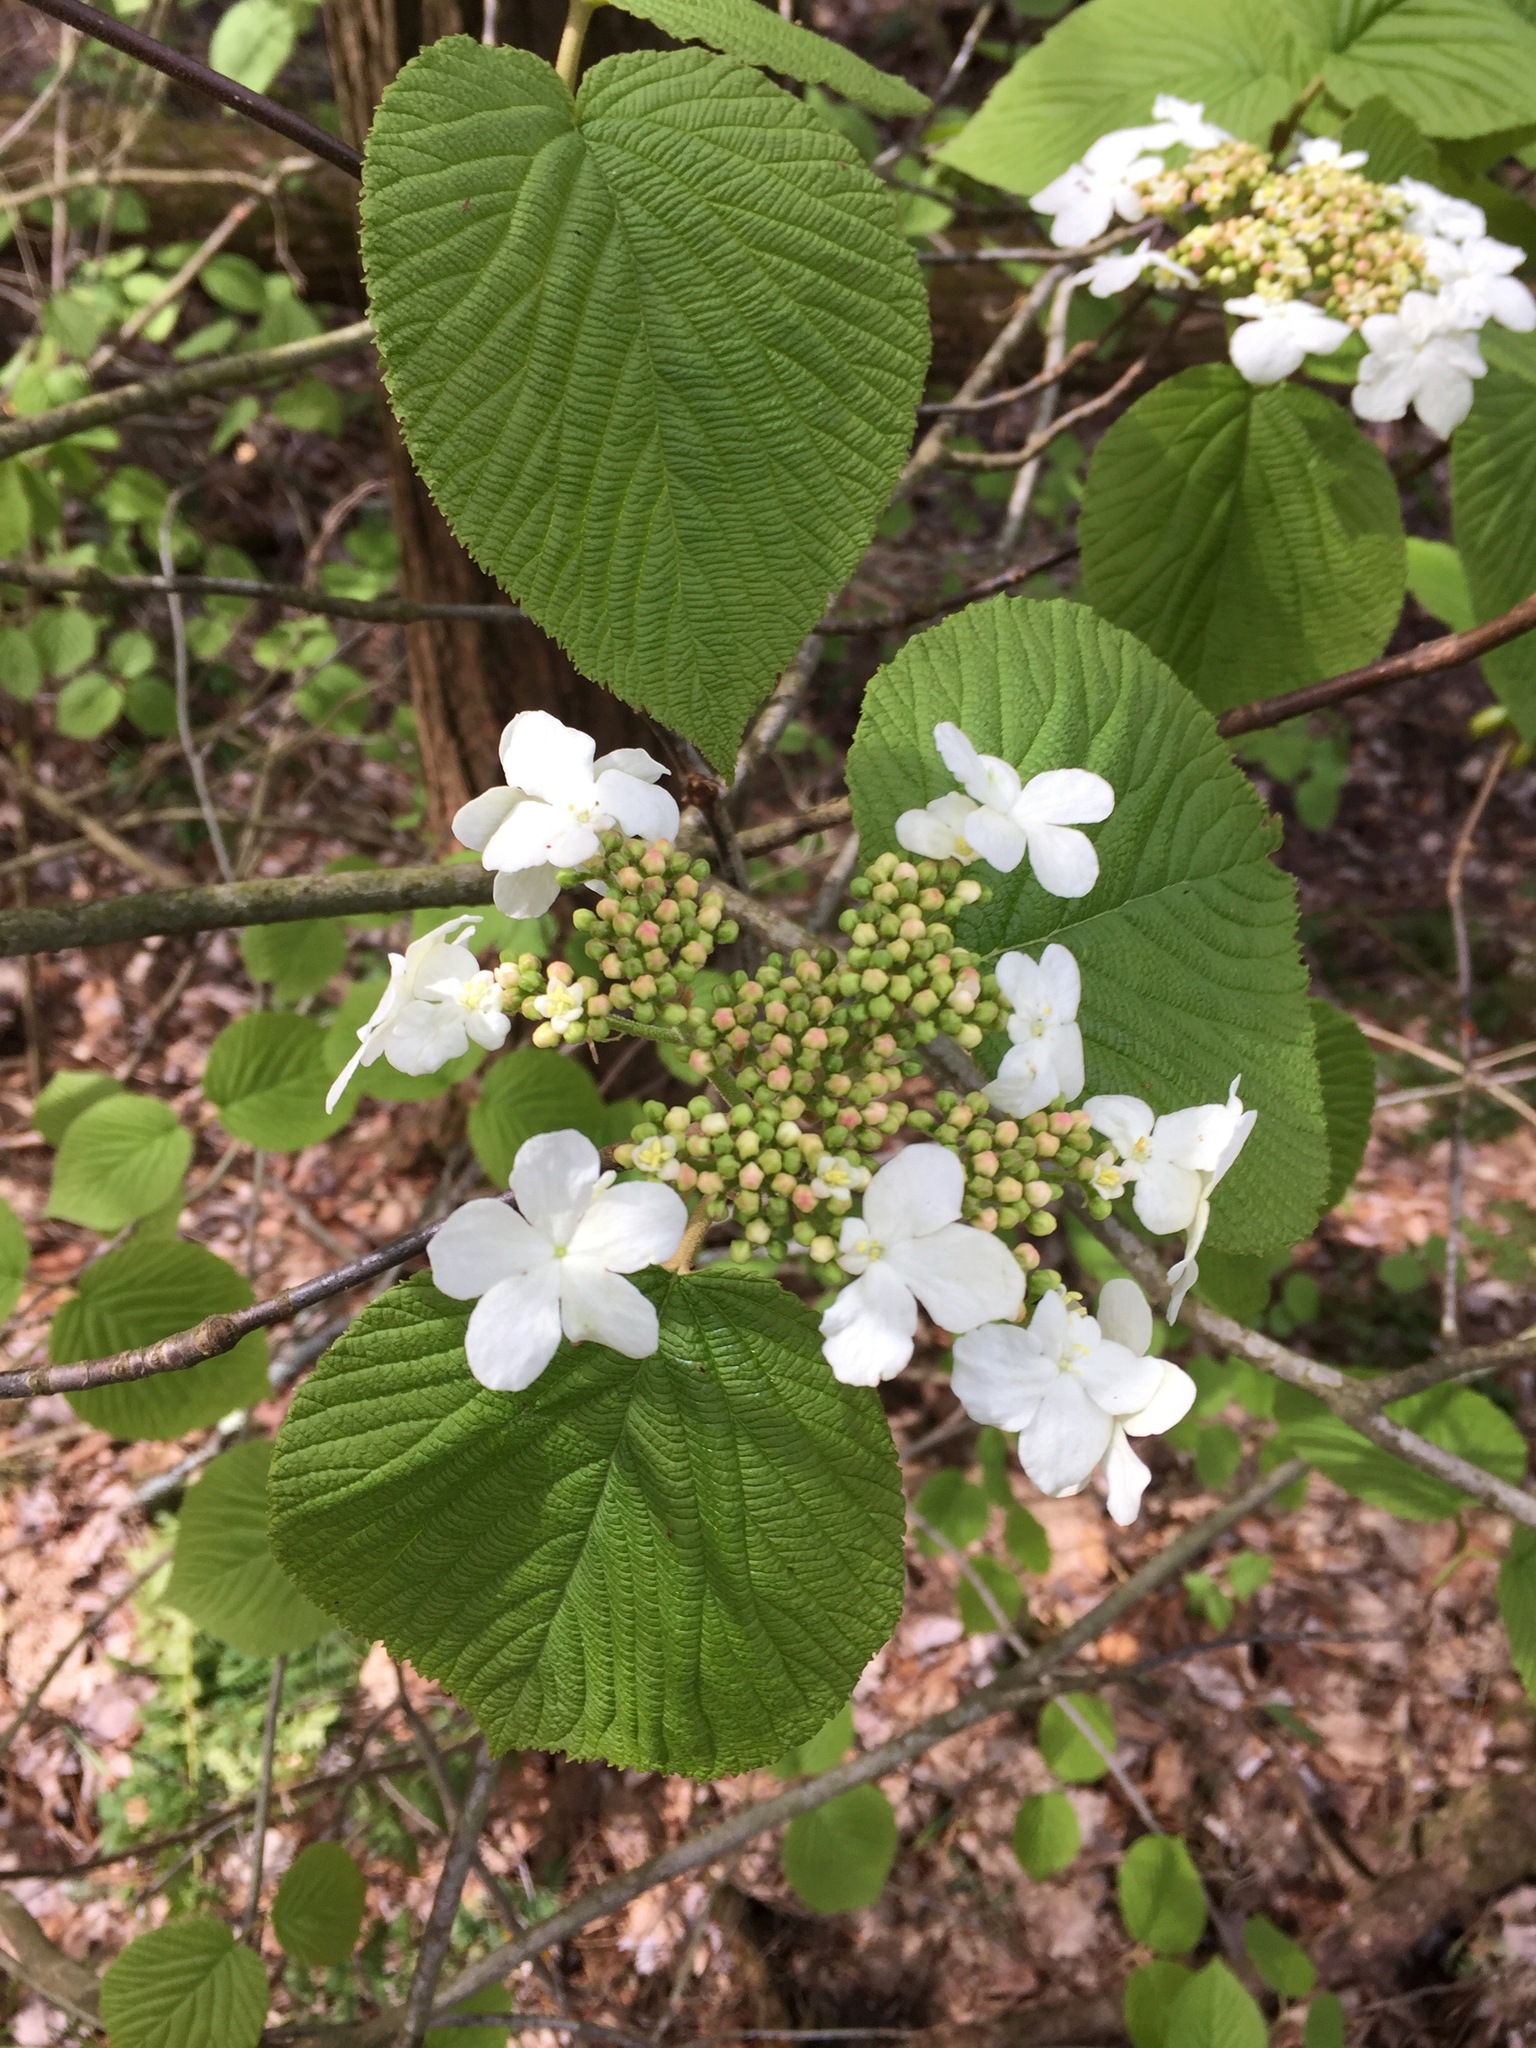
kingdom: Plantae
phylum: Tracheophyta
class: Magnoliopsida
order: Dipsacales
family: Viburnaceae
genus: Viburnum
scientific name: Viburnum lantanoides
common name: Hobblebush
